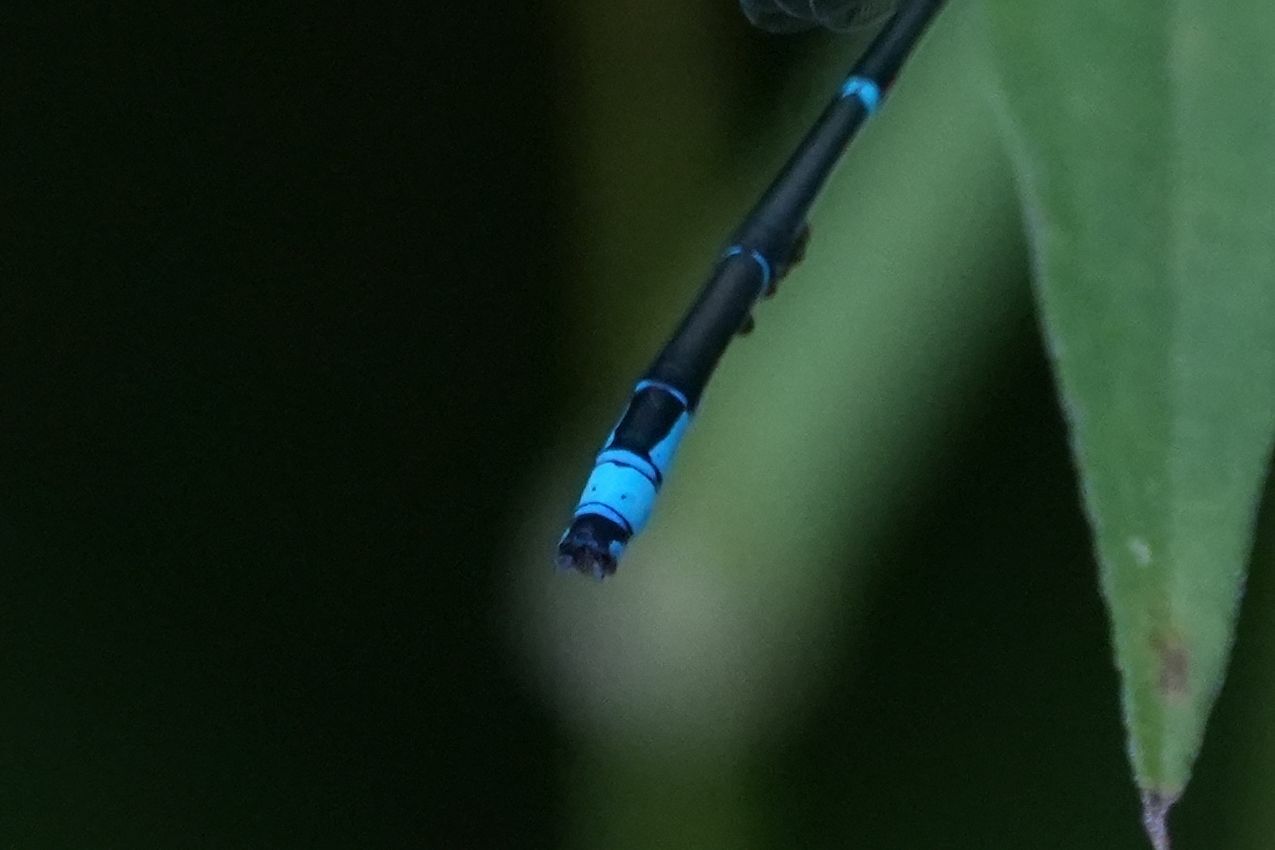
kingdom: Animalia
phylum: Arthropoda
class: Insecta
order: Odonata
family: Coenagrionidae
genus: Enallagma
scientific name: Enallagma exsulans
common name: Stream bluet
